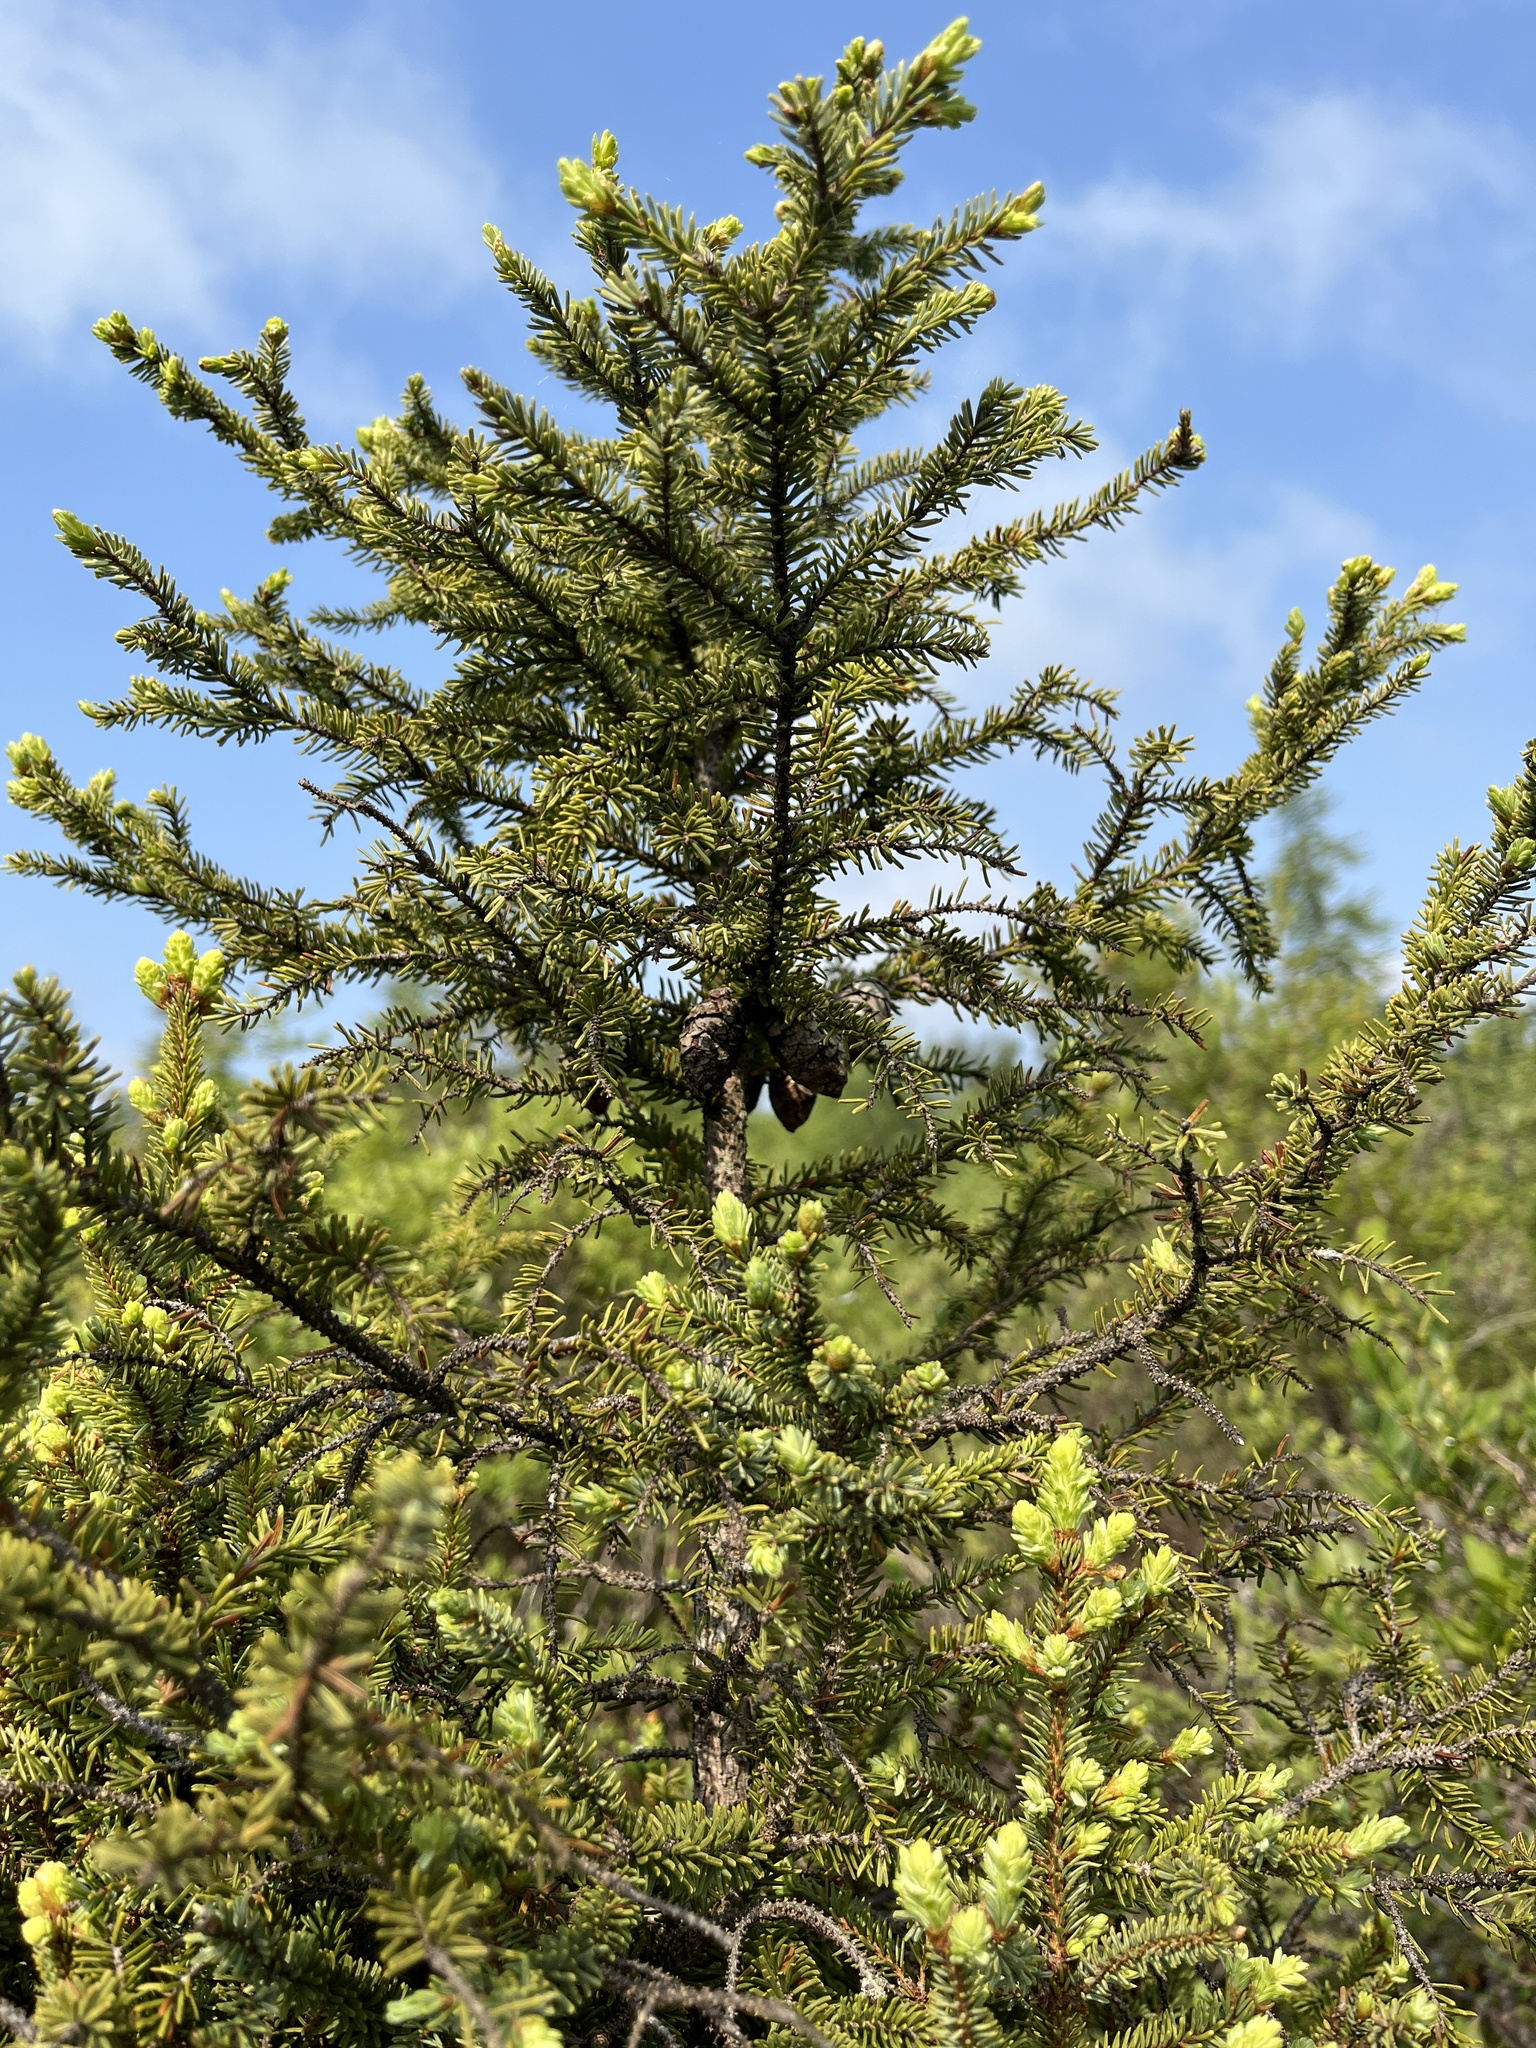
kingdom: Plantae
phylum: Tracheophyta
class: Pinopsida
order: Pinales
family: Pinaceae
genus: Picea
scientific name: Picea mariana
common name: Black spruce
